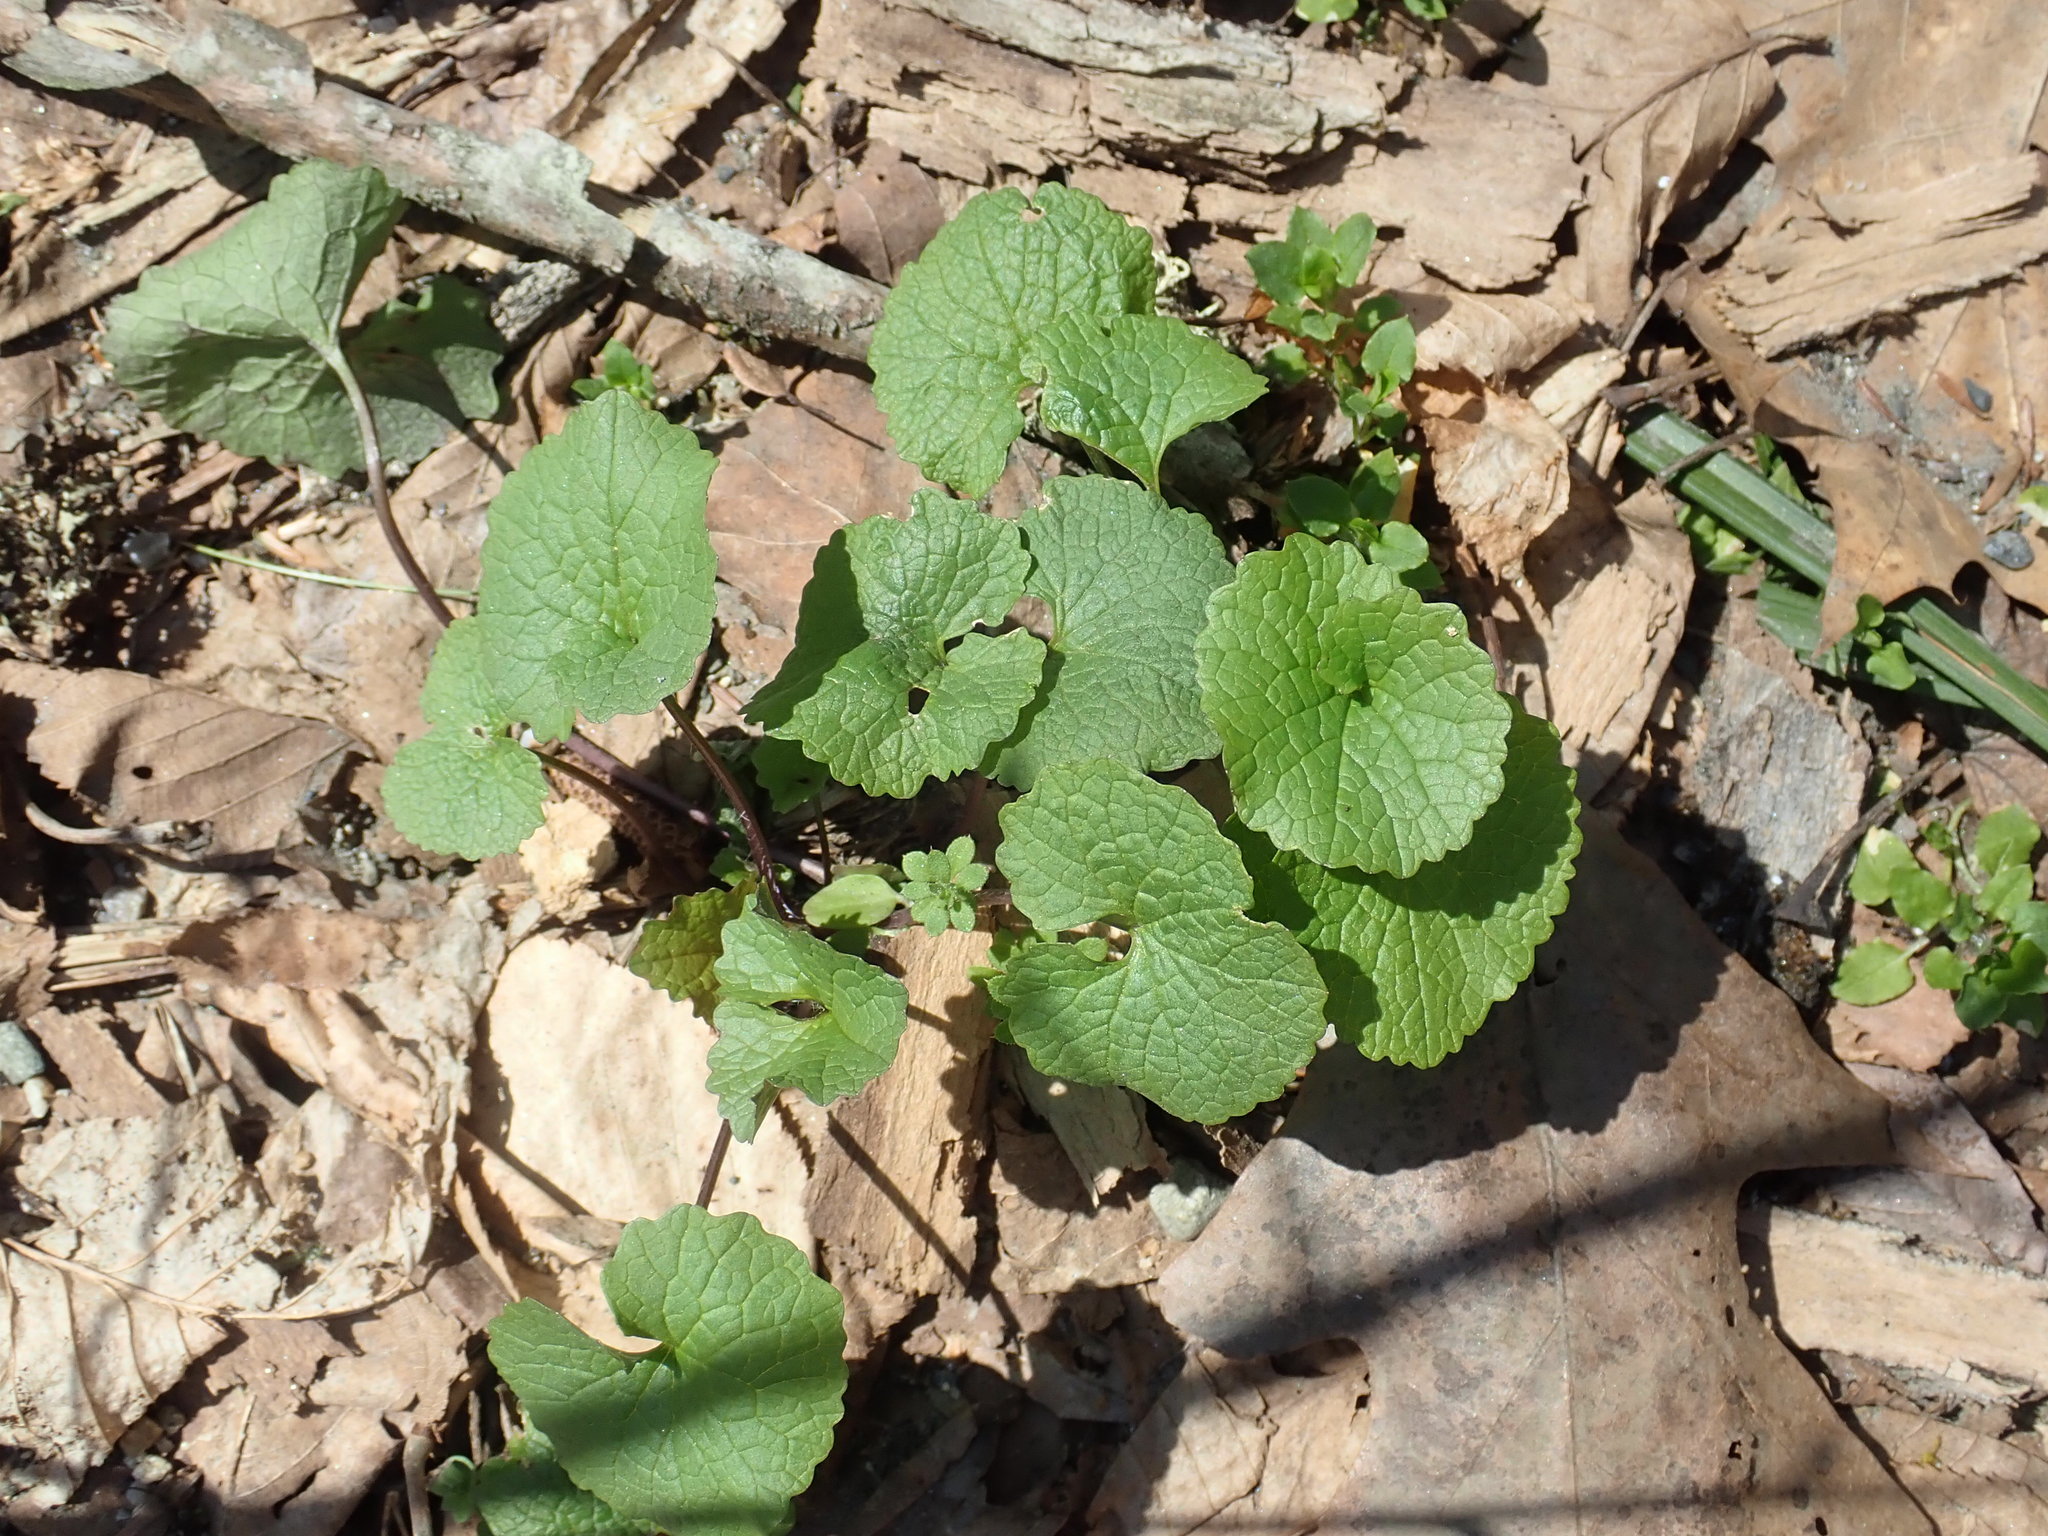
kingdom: Plantae
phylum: Tracheophyta
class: Magnoliopsida
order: Brassicales
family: Brassicaceae
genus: Alliaria
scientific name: Alliaria petiolata
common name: Garlic mustard
